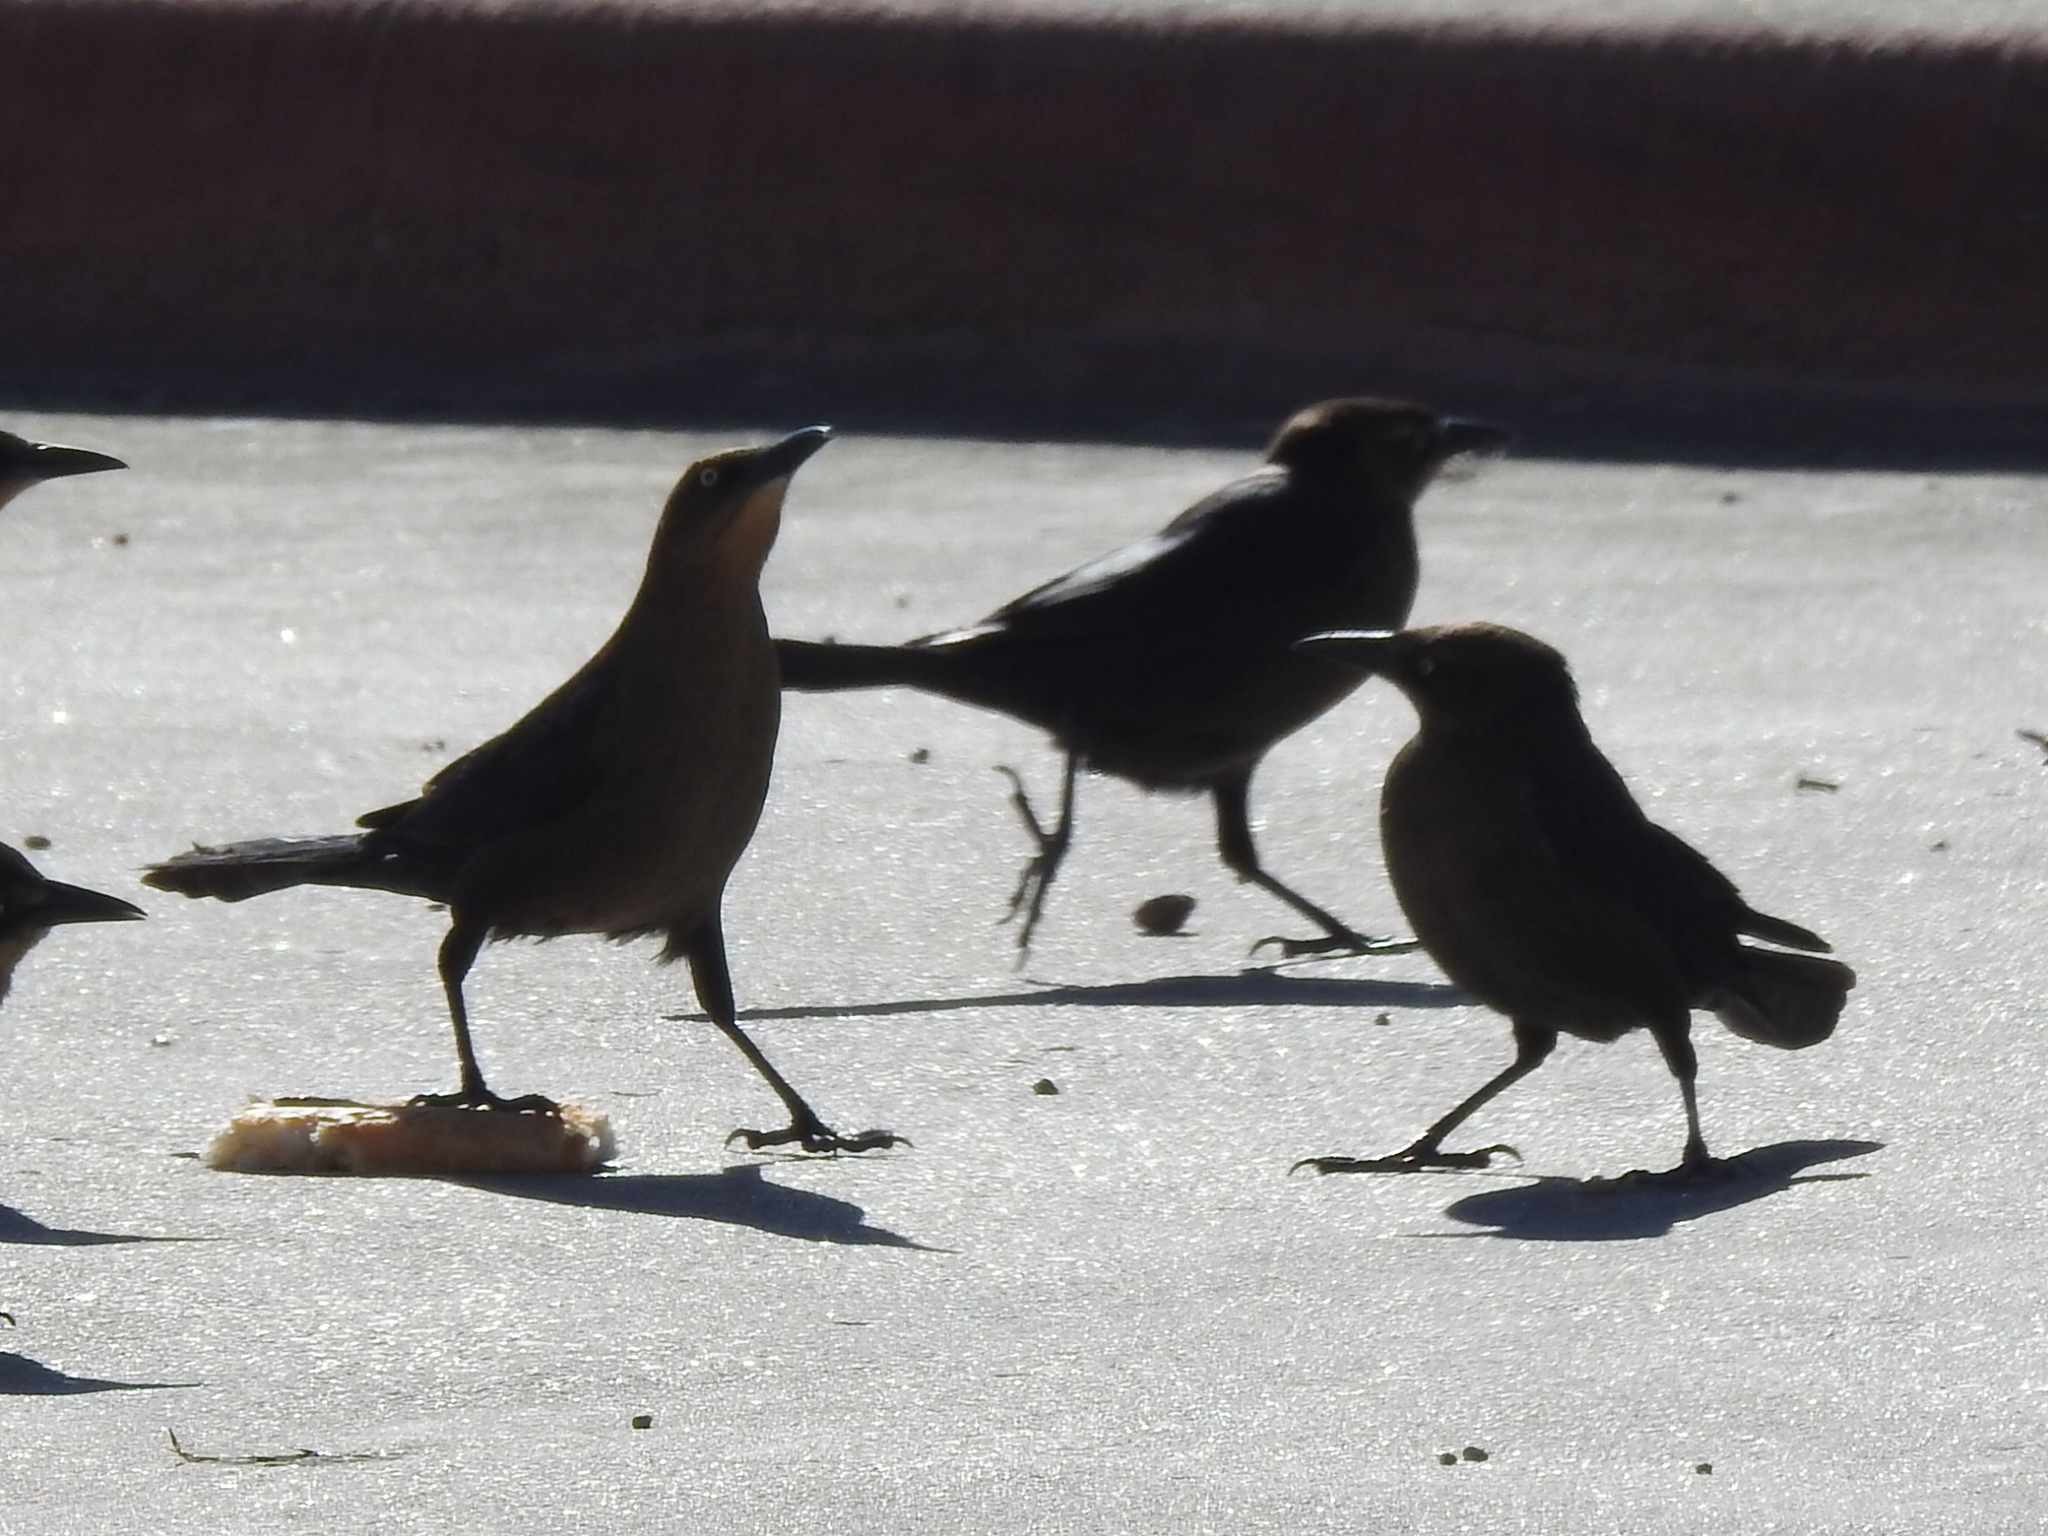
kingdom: Animalia
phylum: Chordata
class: Aves
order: Passeriformes
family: Icteridae
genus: Quiscalus
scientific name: Quiscalus mexicanus
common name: Great-tailed grackle
